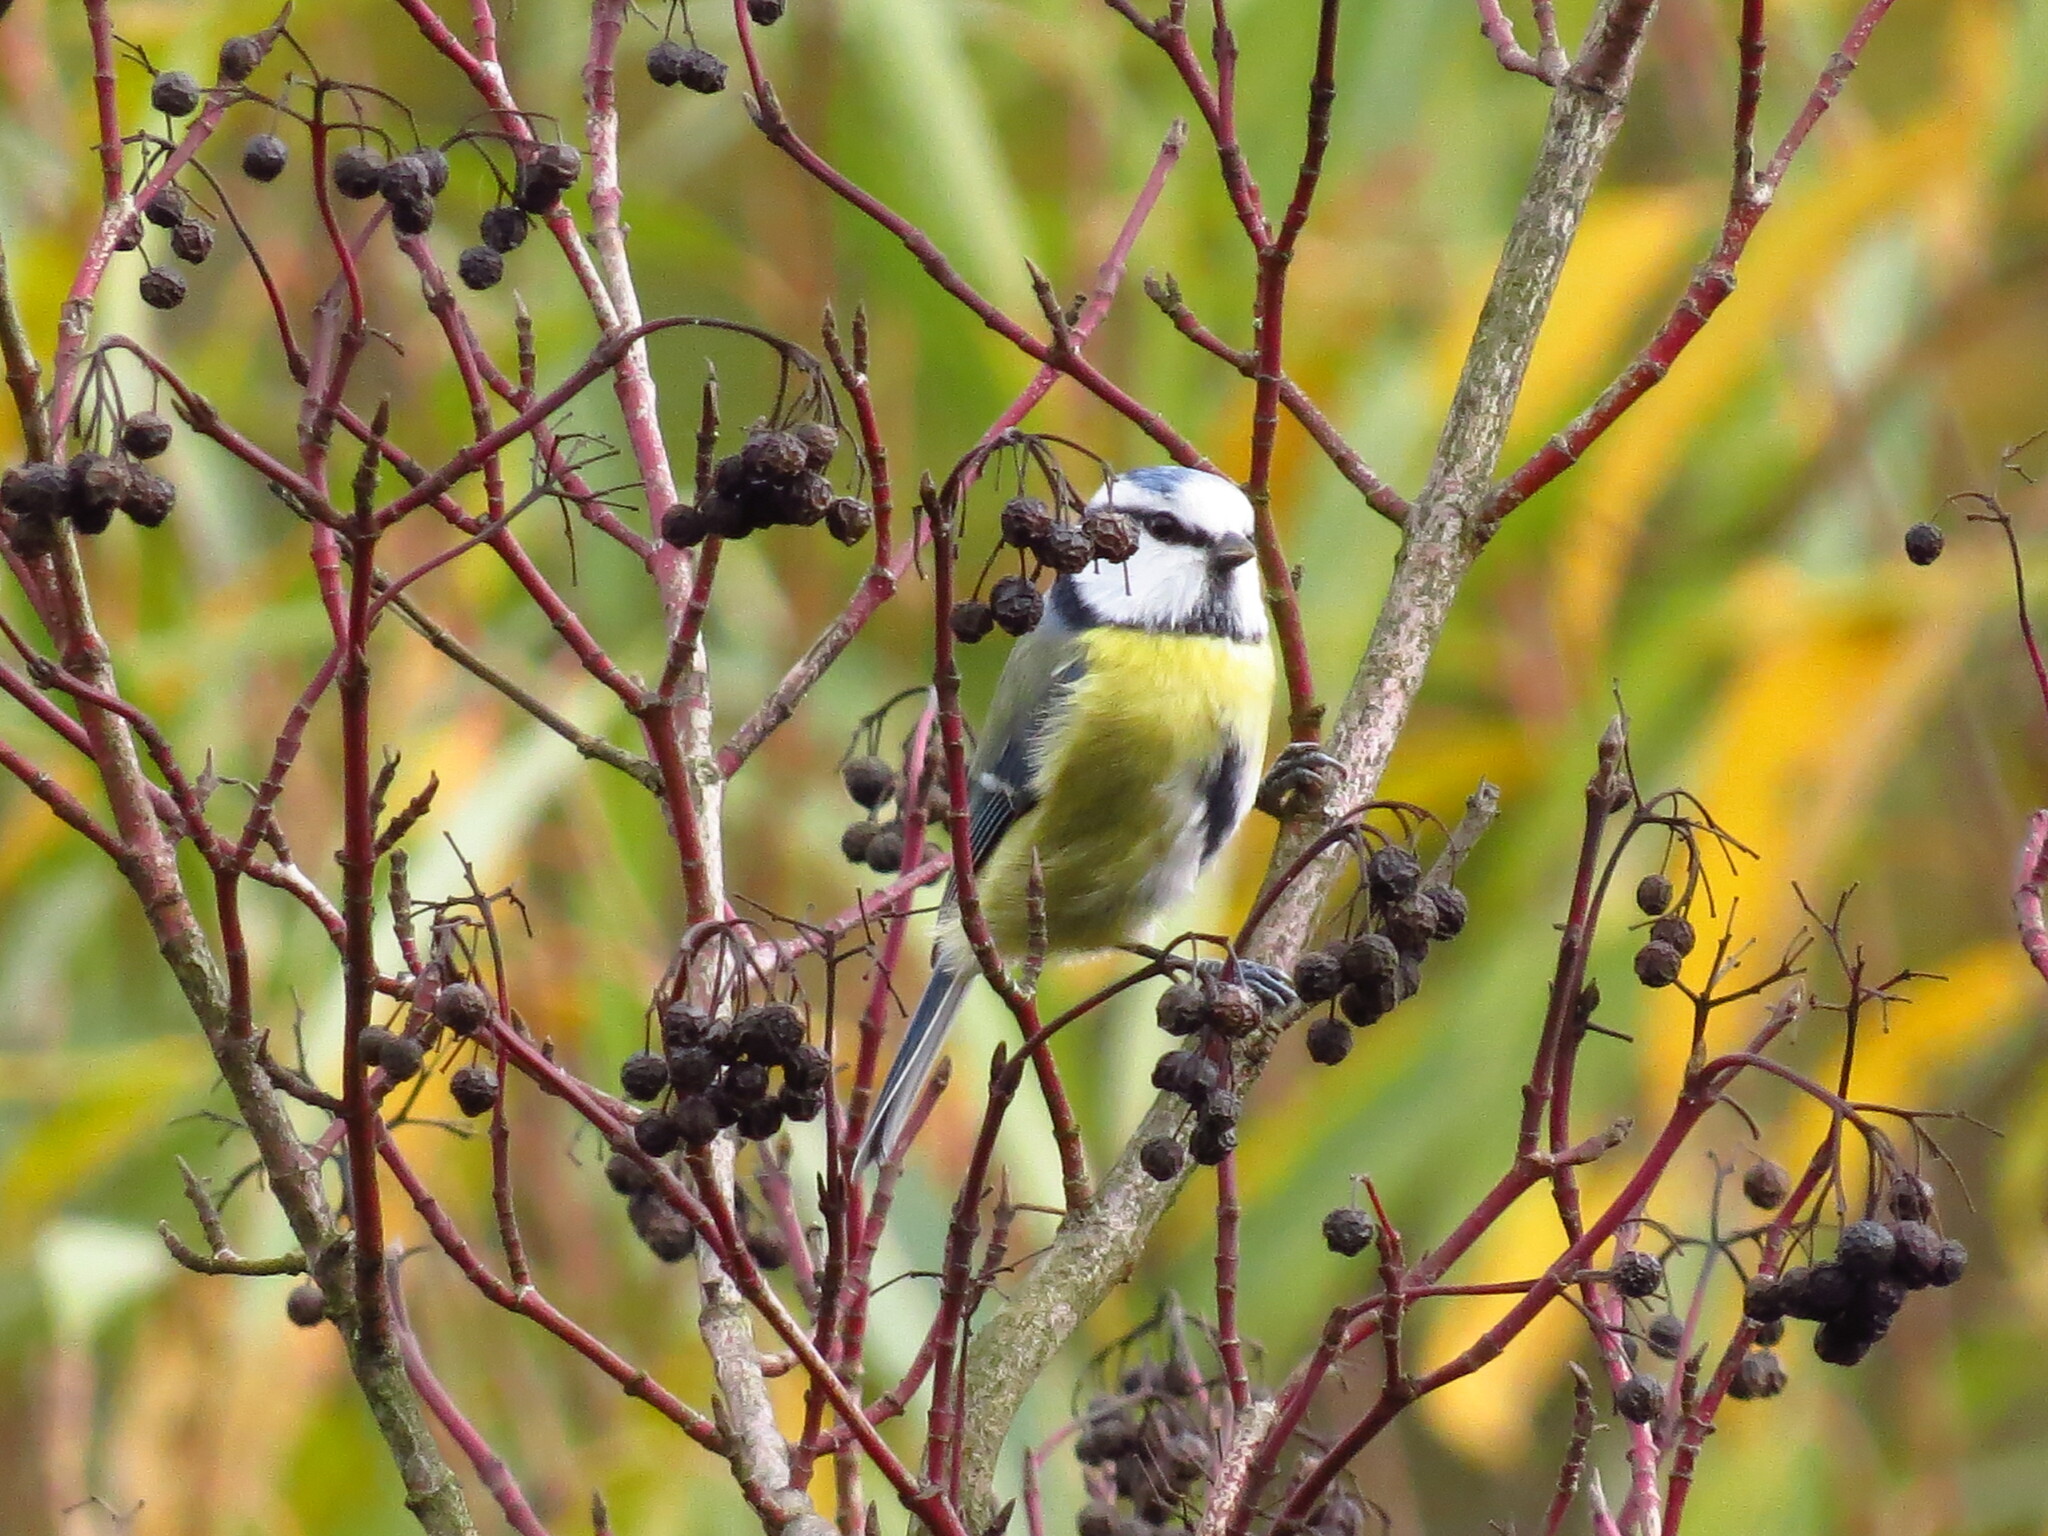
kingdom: Animalia
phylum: Chordata
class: Aves
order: Passeriformes
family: Paridae
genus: Cyanistes
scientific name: Cyanistes caeruleus
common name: Eurasian blue tit
